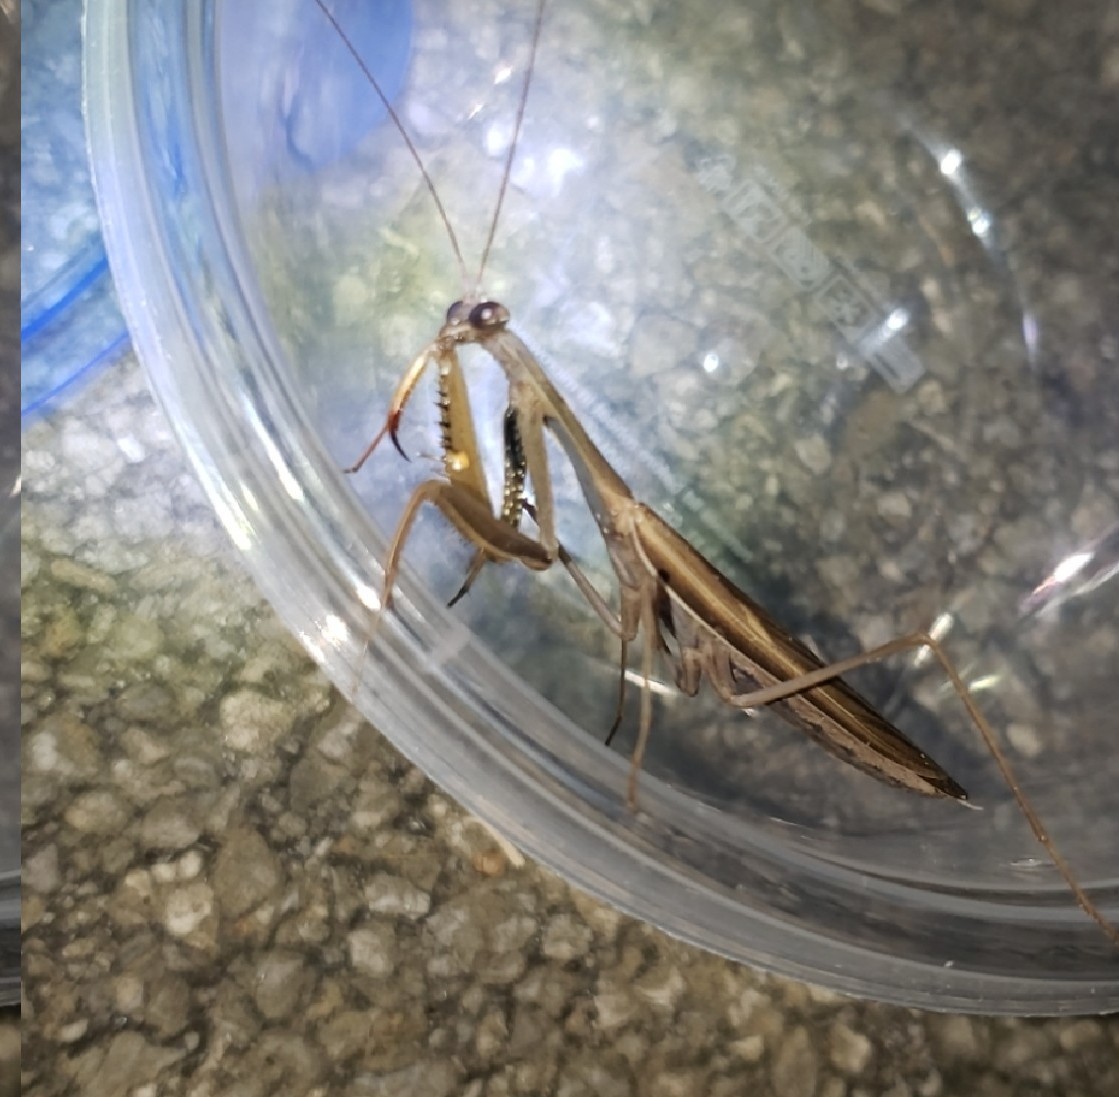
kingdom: Animalia
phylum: Arthropoda
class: Insecta
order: Mantodea
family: Mantidae
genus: Mantis
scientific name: Mantis religiosa
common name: Praying mantis
